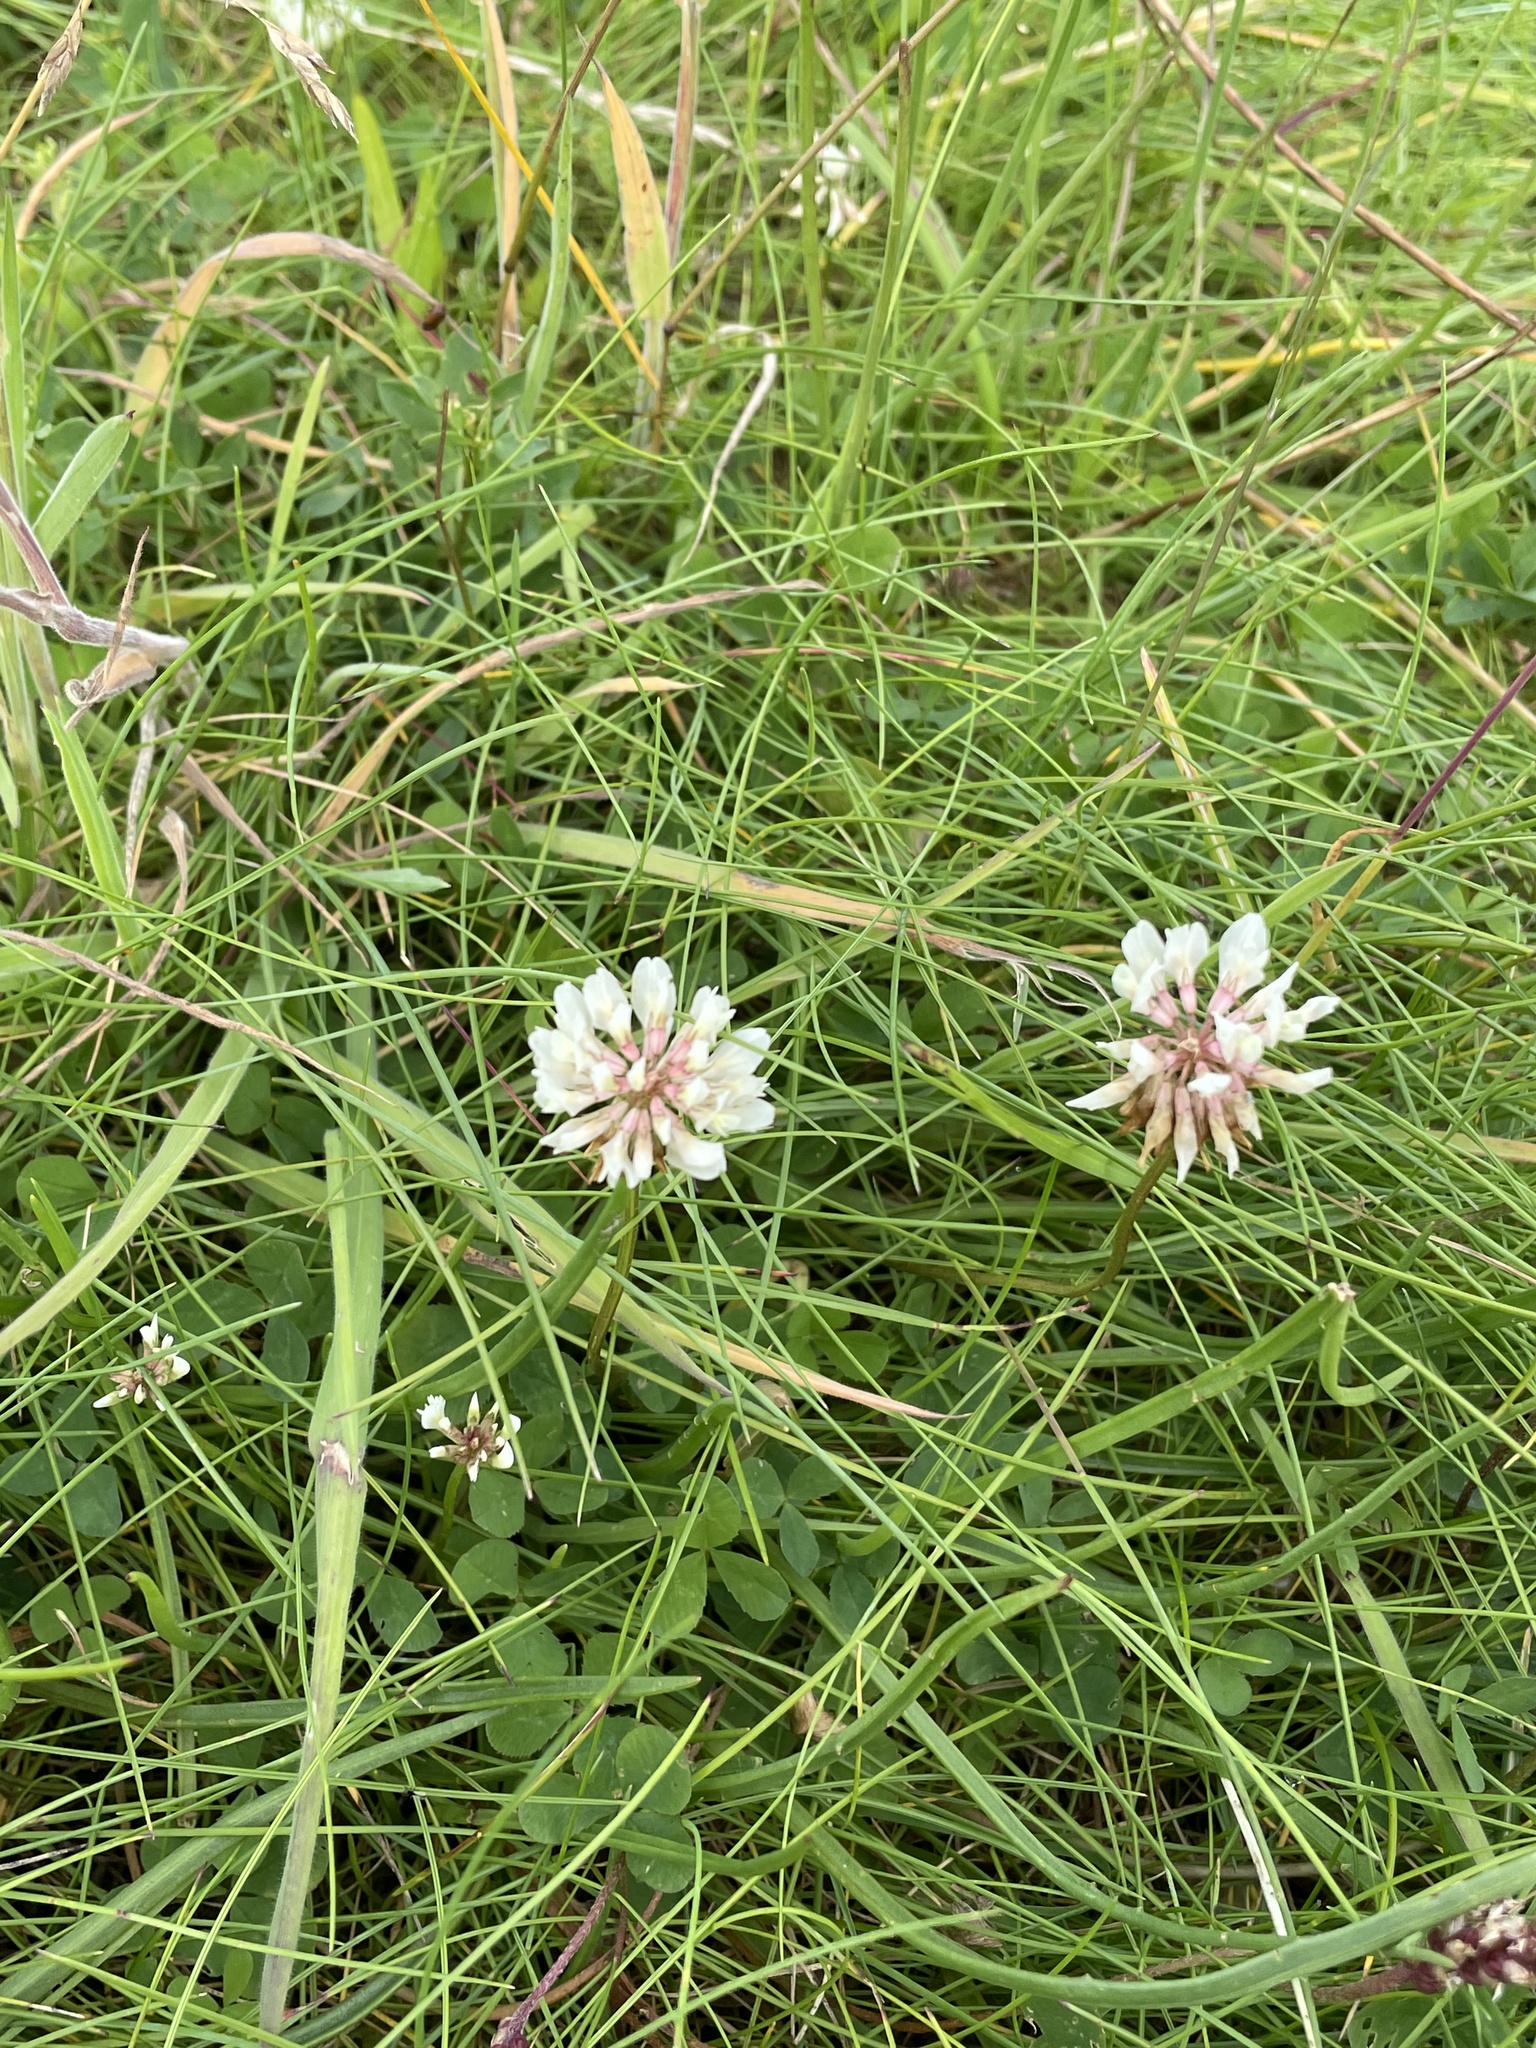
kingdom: Plantae
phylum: Tracheophyta
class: Magnoliopsida
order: Fabales
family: Fabaceae
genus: Trifolium
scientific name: Trifolium repens
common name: White clover
